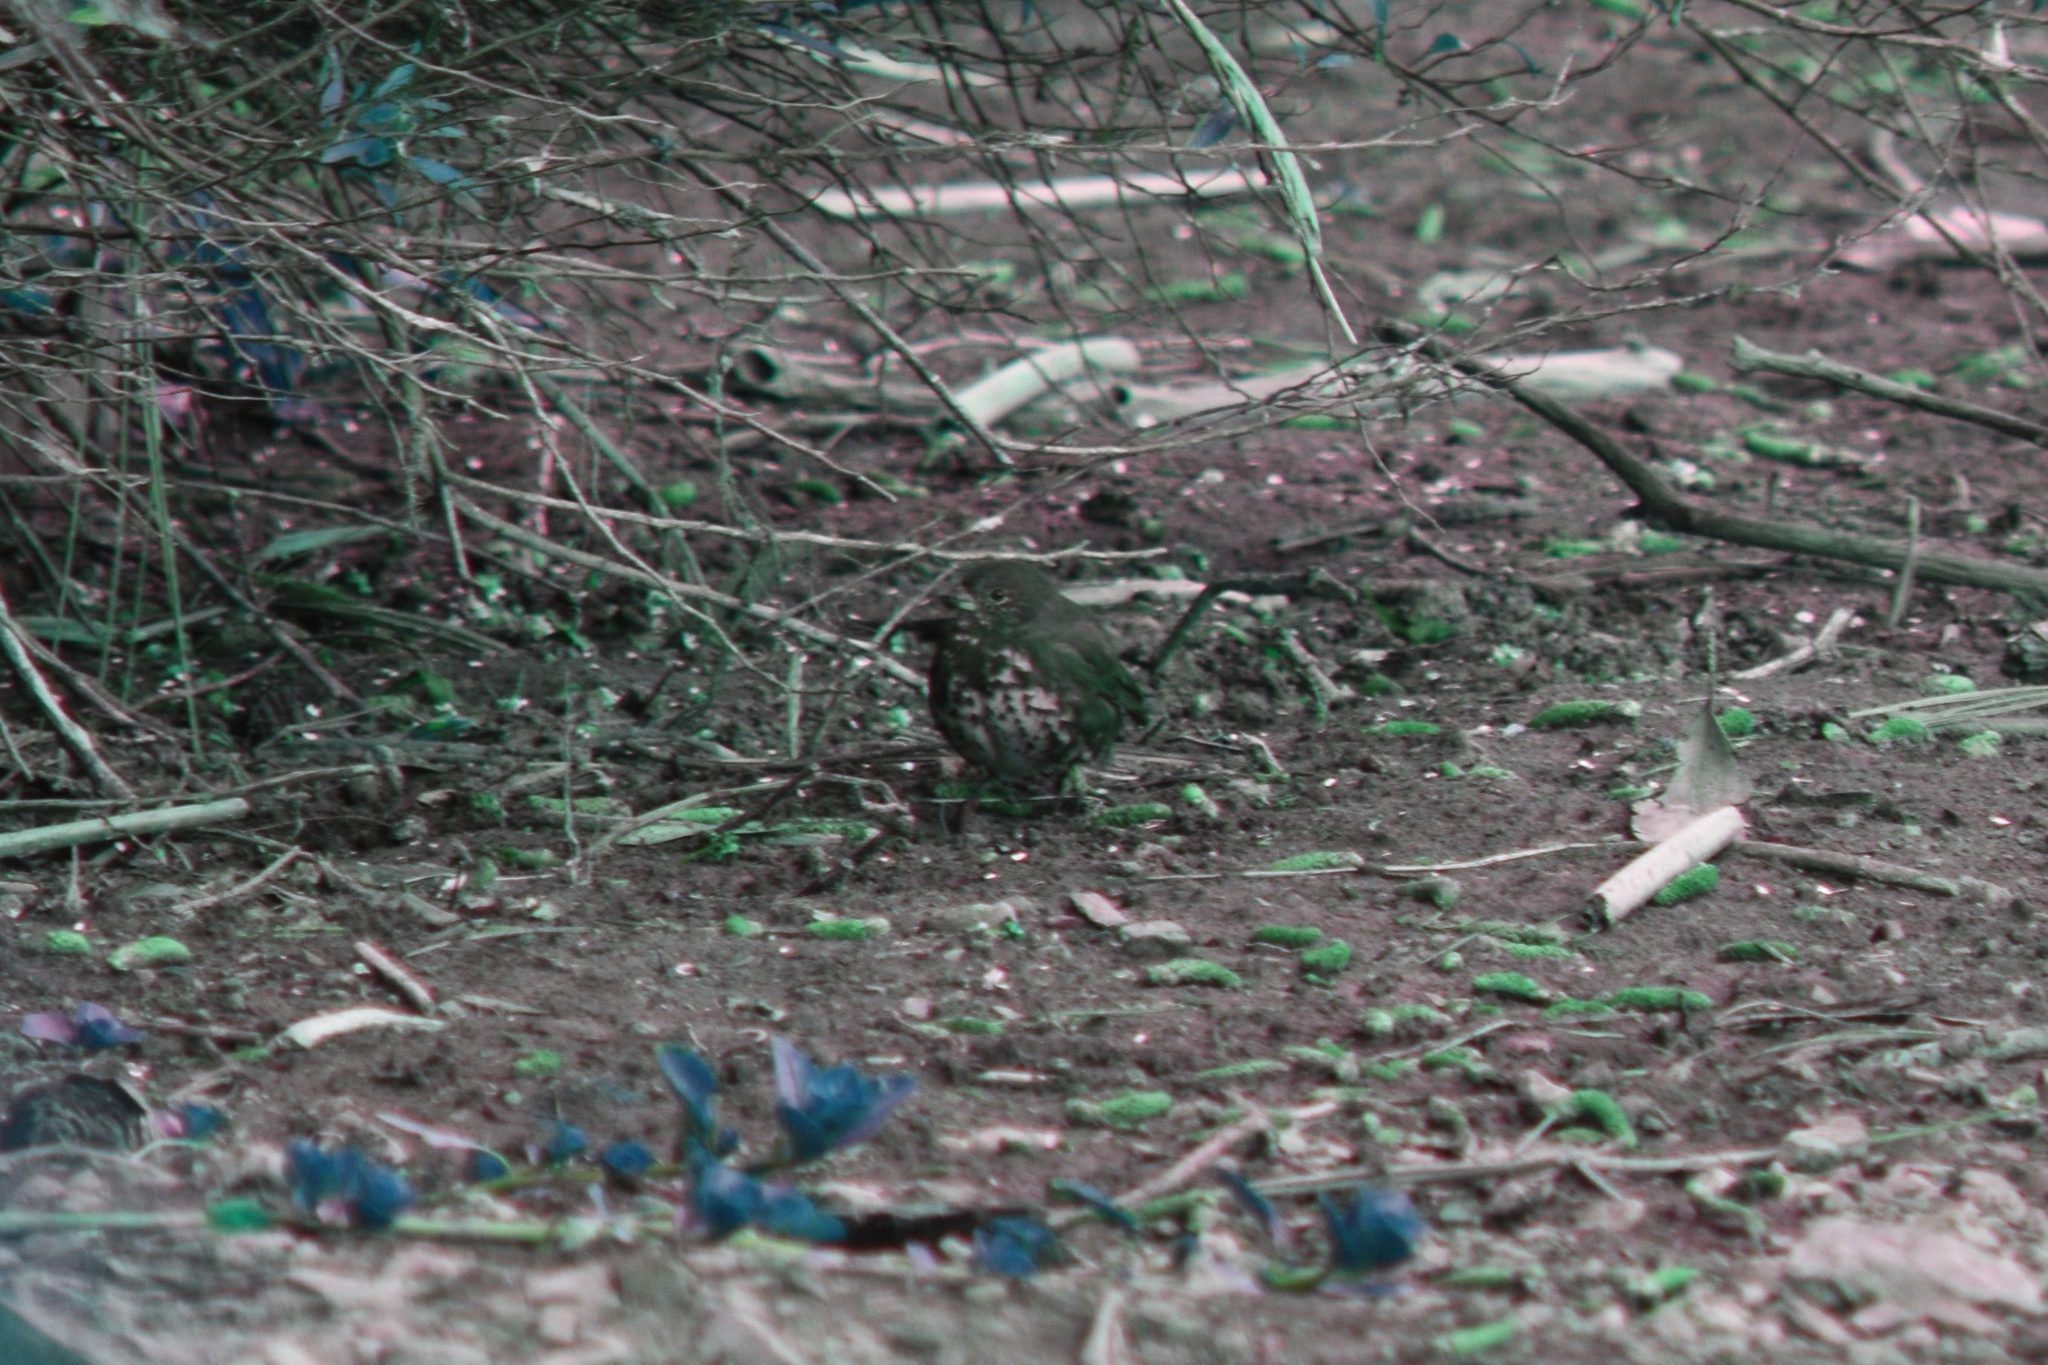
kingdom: Animalia
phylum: Chordata
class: Aves
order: Passeriformes
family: Passerellidae
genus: Passerella
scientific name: Passerella iliaca
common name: Fox sparrow
